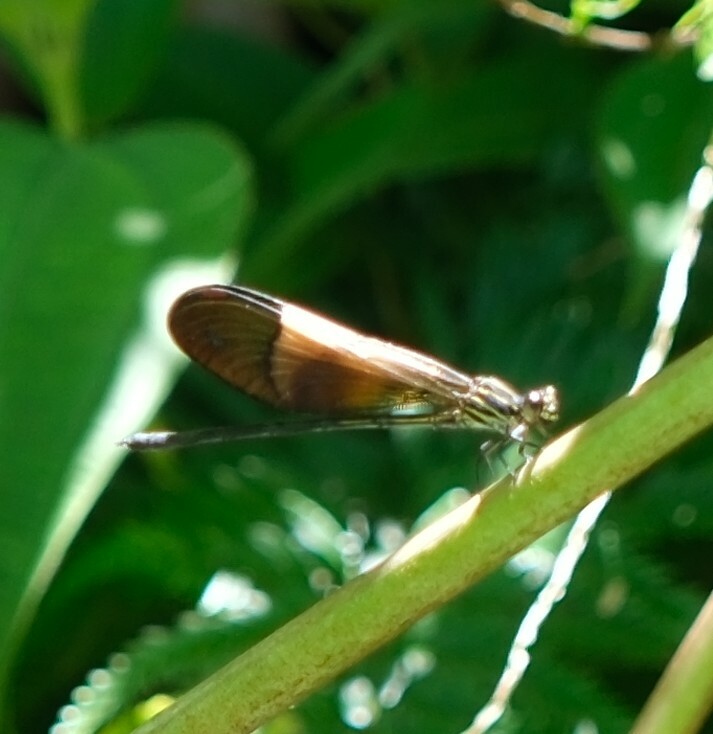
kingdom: Animalia
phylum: Arthropoda
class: Insecta
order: Odonata
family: Polythoridae
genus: Polythore
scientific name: Polythore boliviana
